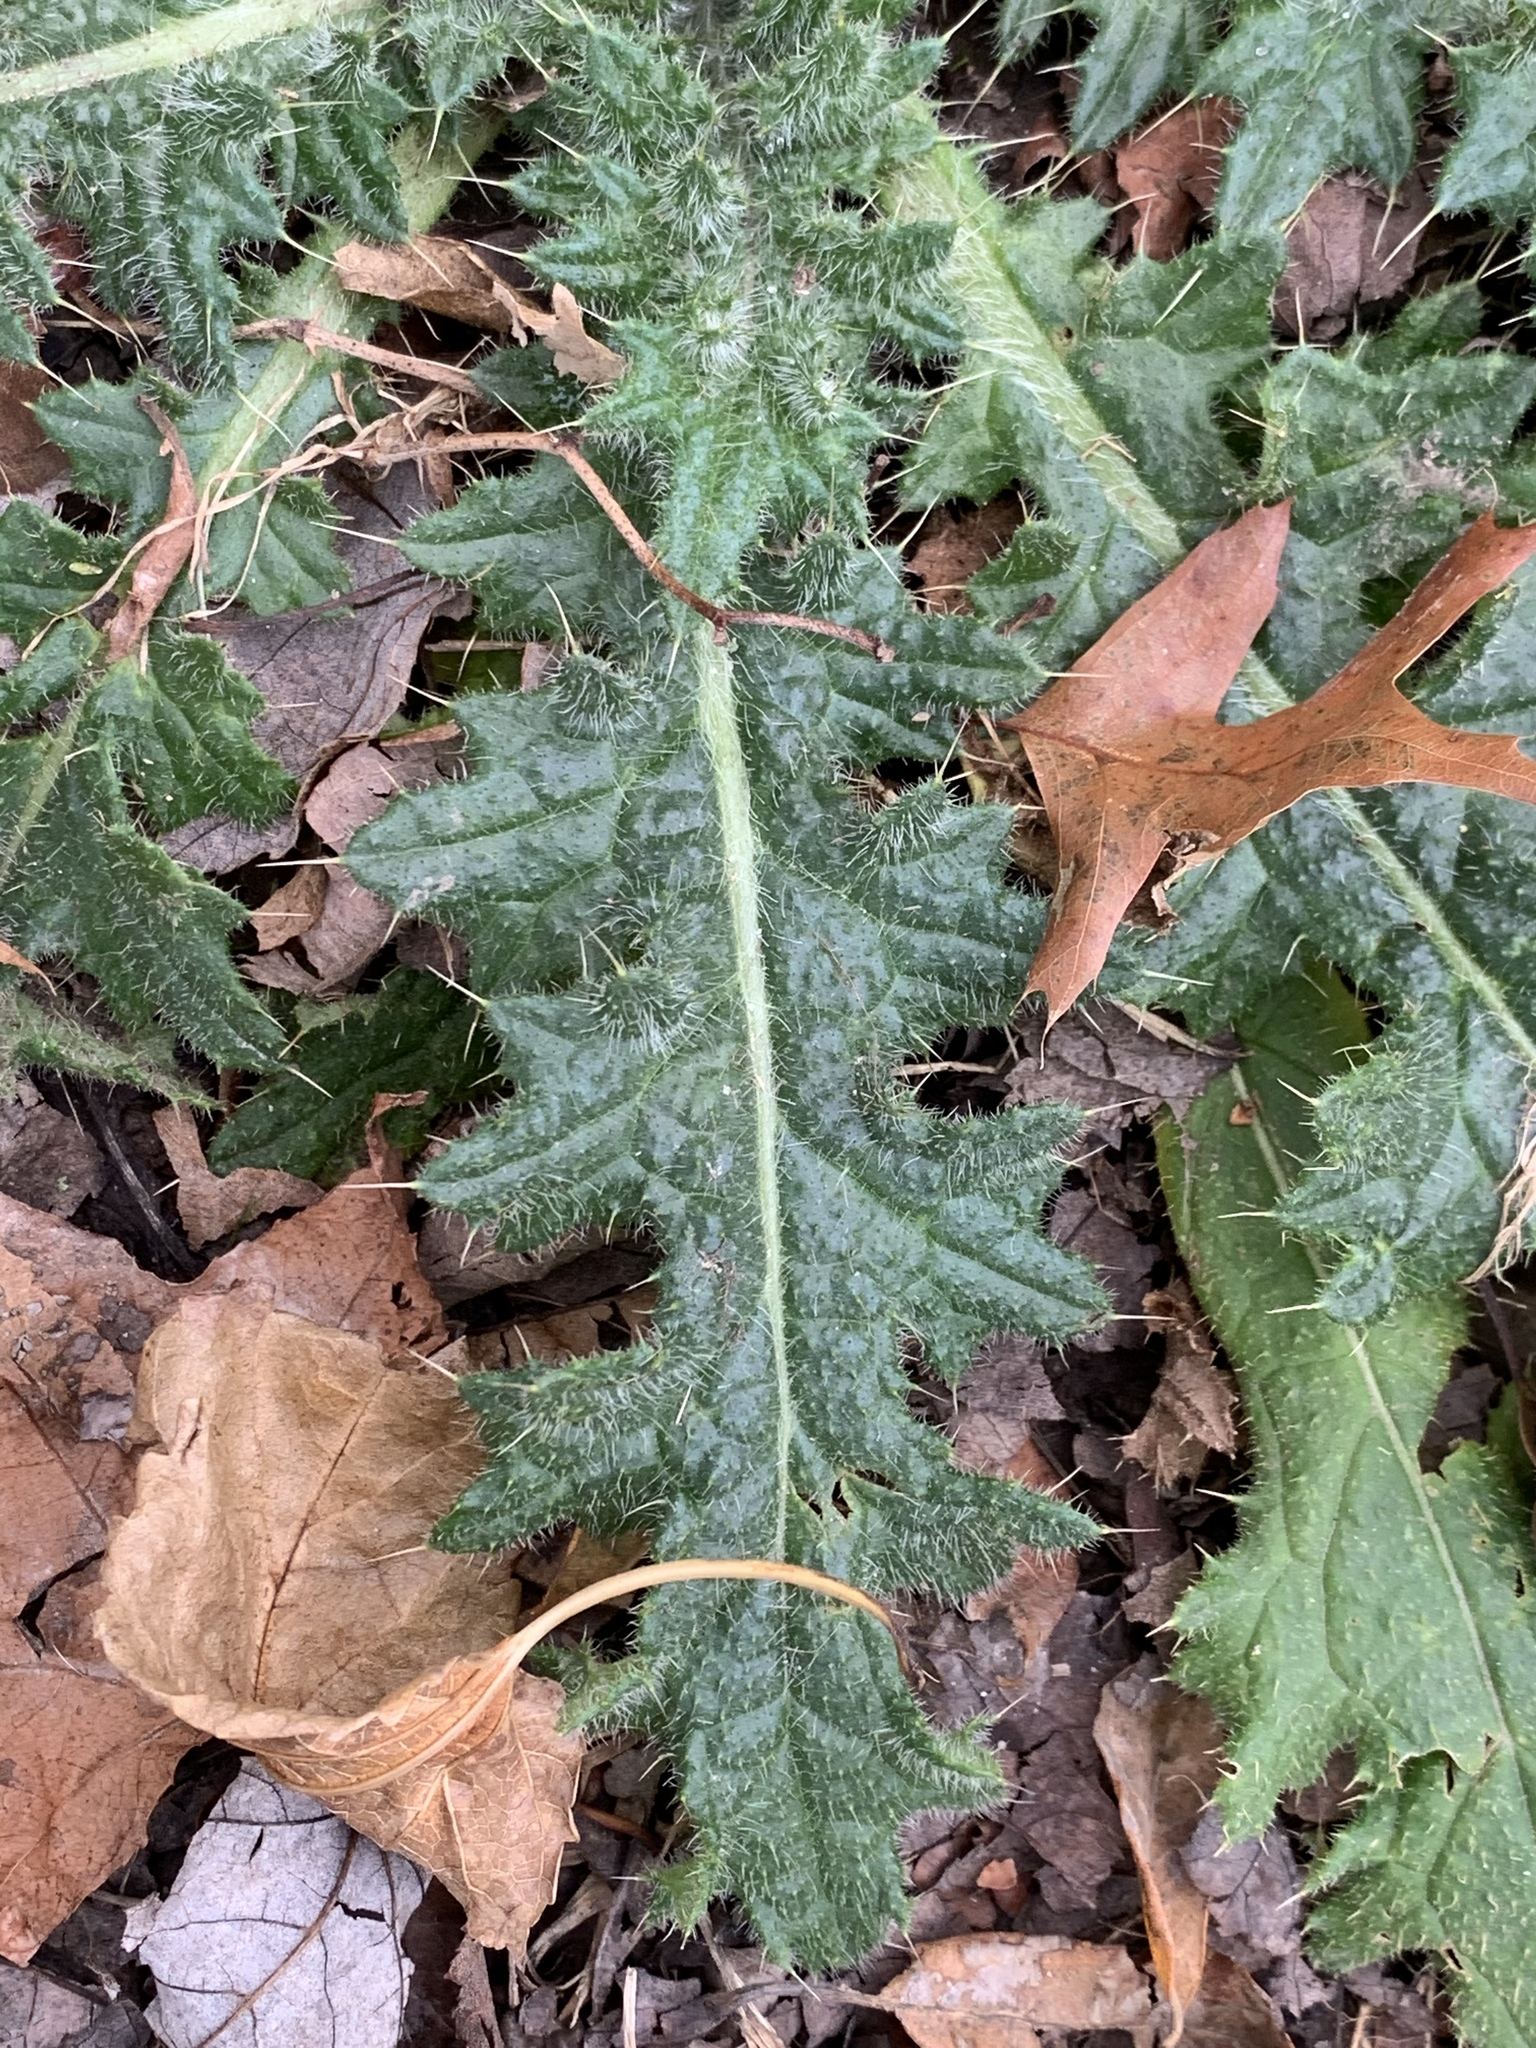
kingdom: Plantae
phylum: Tracheophyta
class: Magnoliopsida
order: Asterales
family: Asteraceae
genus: Cirsium
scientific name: Cirsium vulgare
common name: Bull thistle
